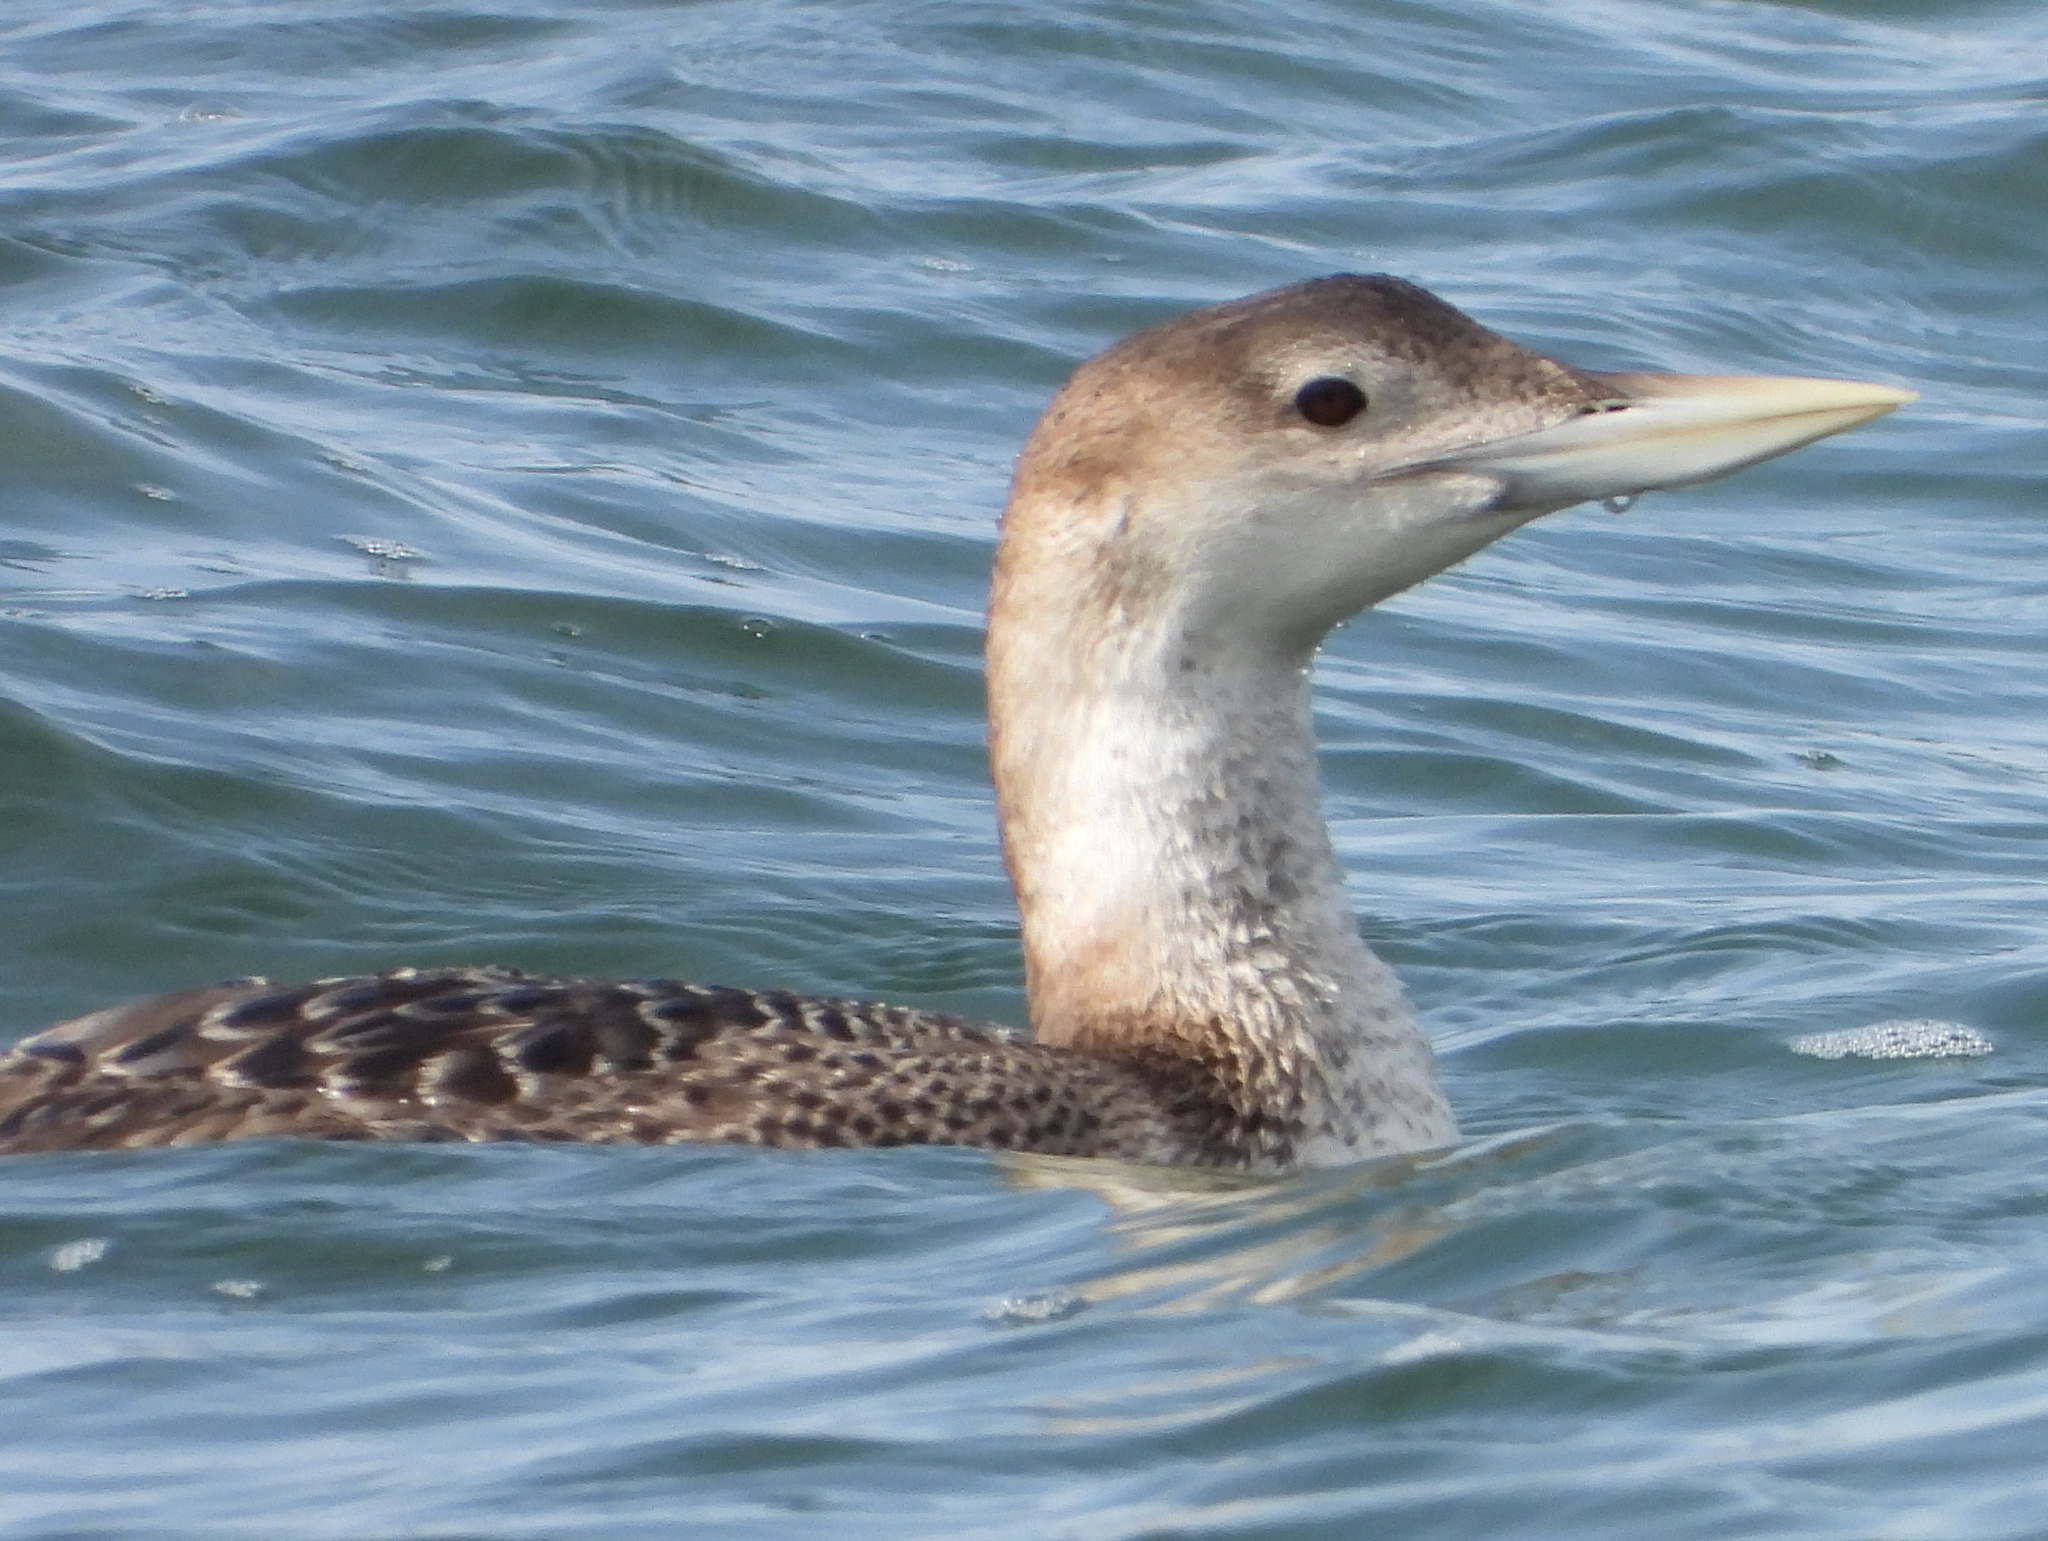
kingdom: Animalia
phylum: Chordata
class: Aves
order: Gaviiformes
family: Gaviidae
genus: Gavia
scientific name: Gavia adamsii
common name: Yellow-billed loon
